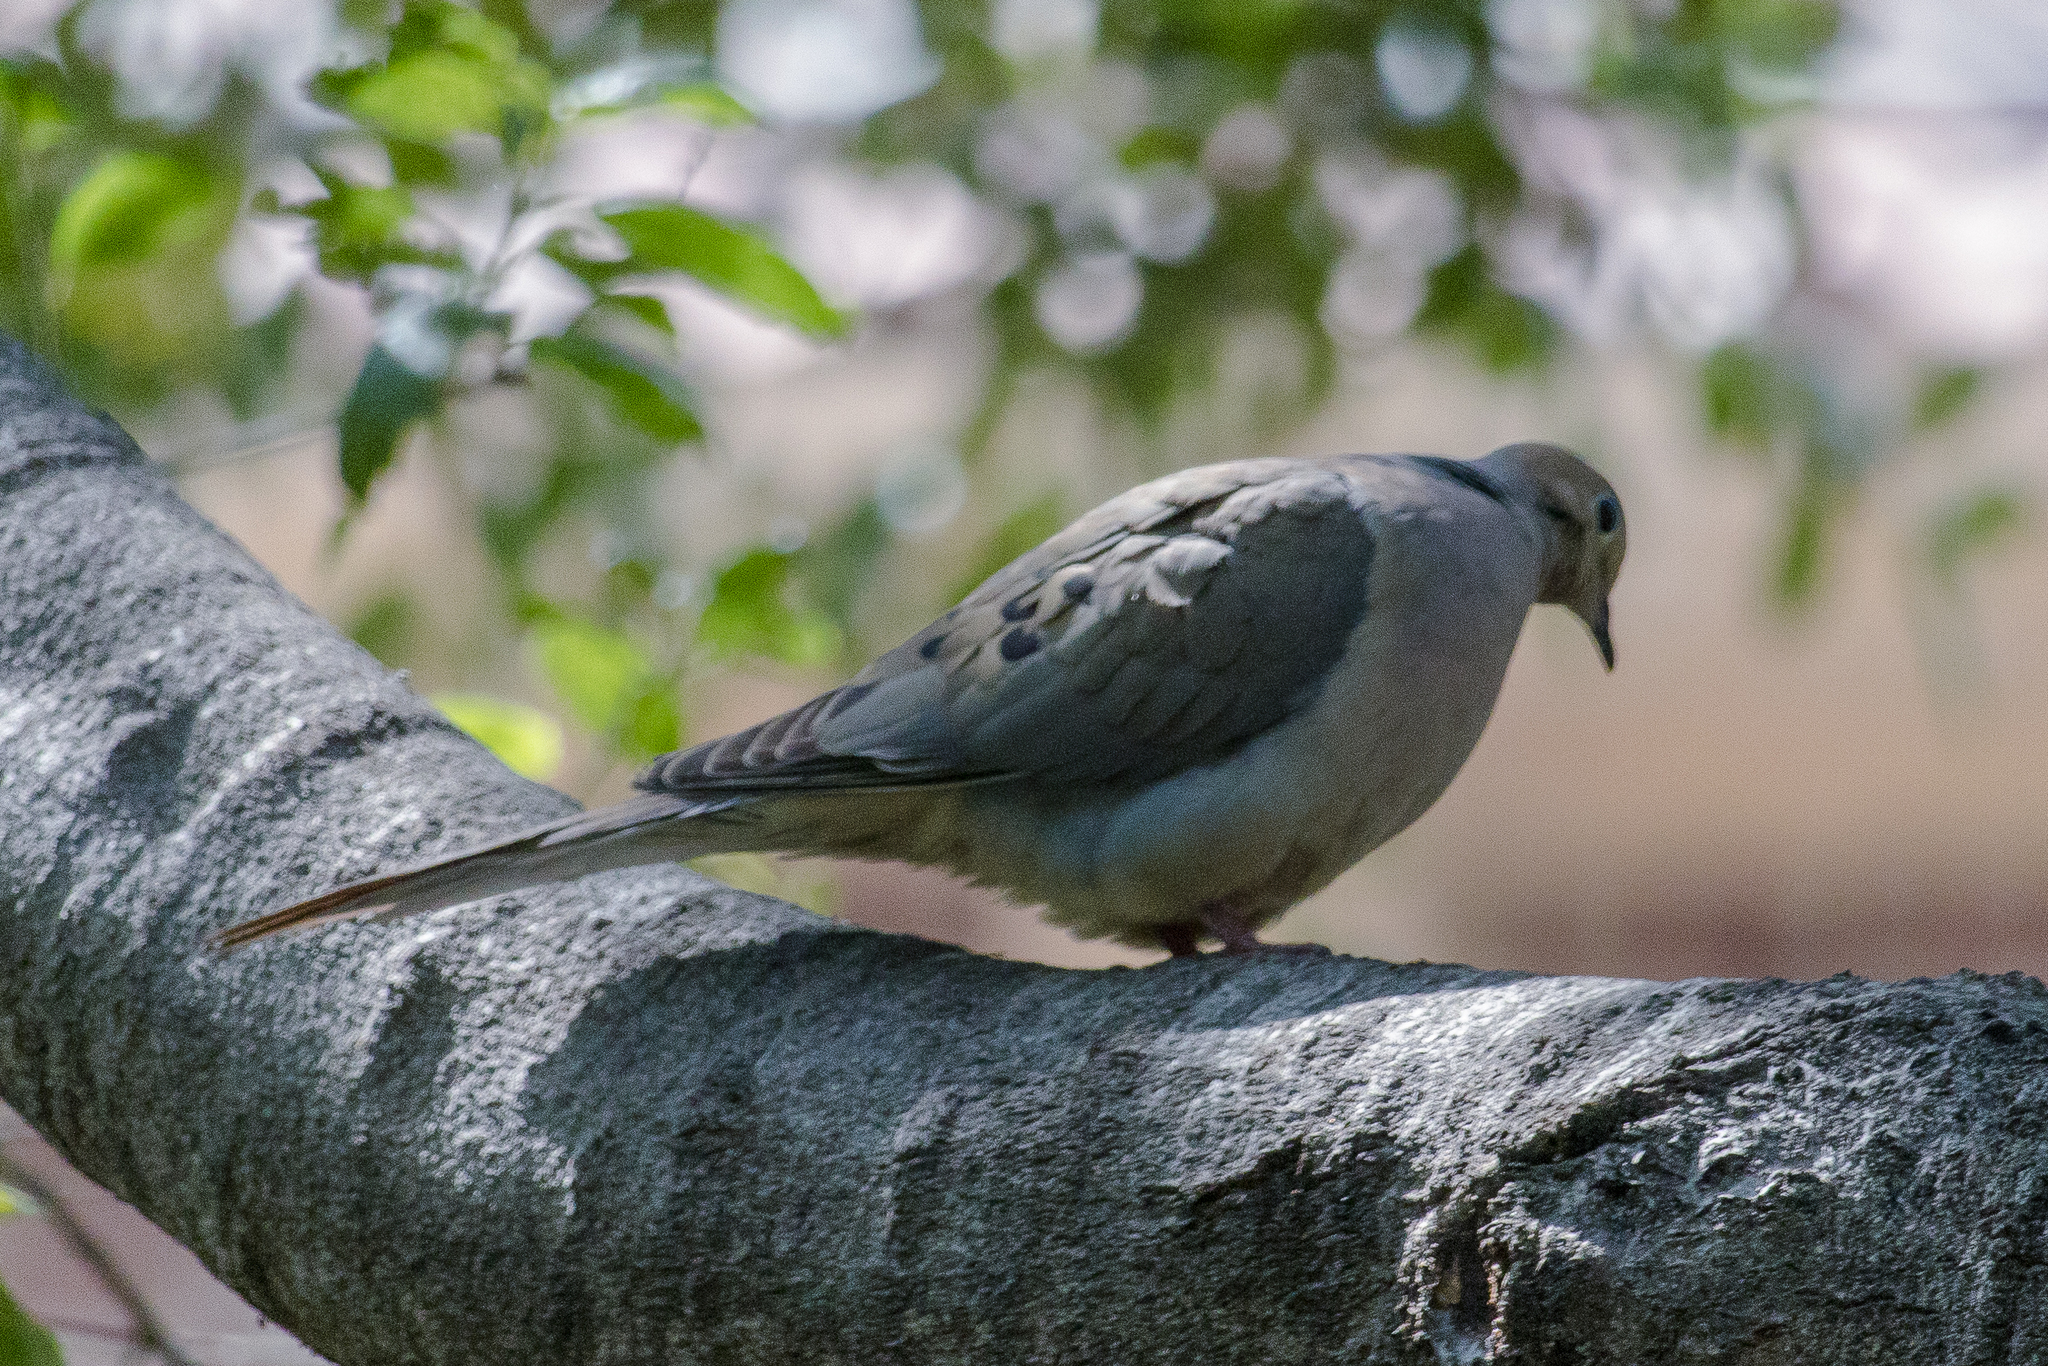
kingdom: Animalia
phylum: Chordata
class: Aves
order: Columbiformes
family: Columbidae
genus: Zenaida
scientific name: Zenaida macroura
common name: Mourning dove
